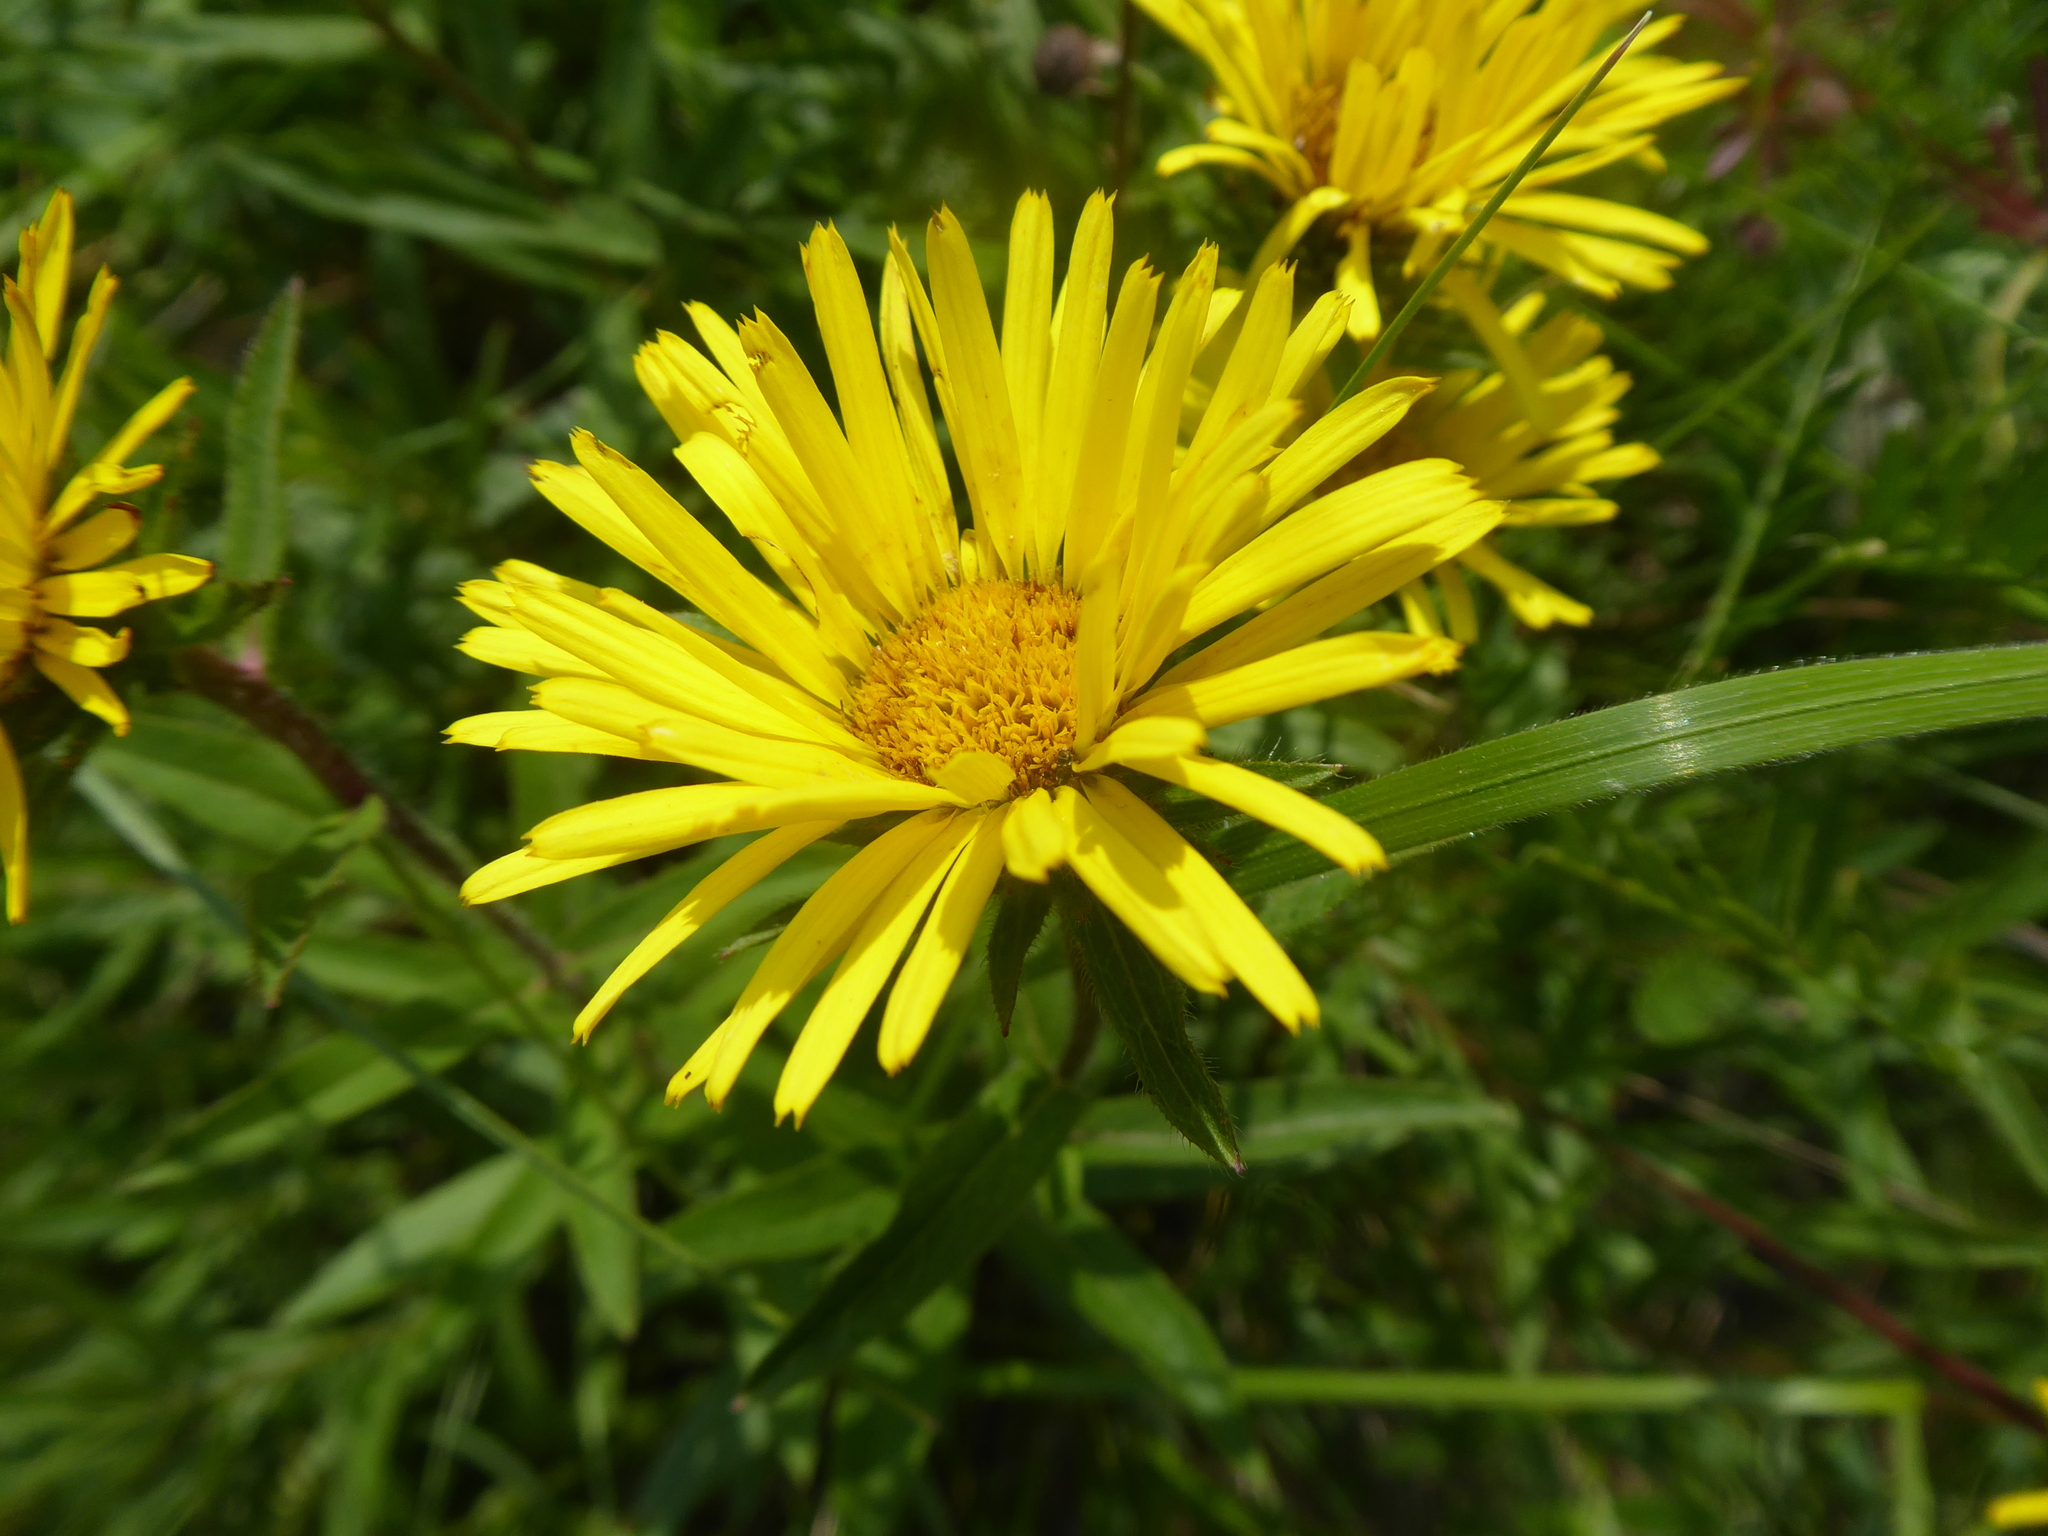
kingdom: Plantae
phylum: Tracheophyta
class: Magnoliopsida
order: Asterales
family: Asteraceae
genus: Pentanema
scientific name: Pentanema hirtum
